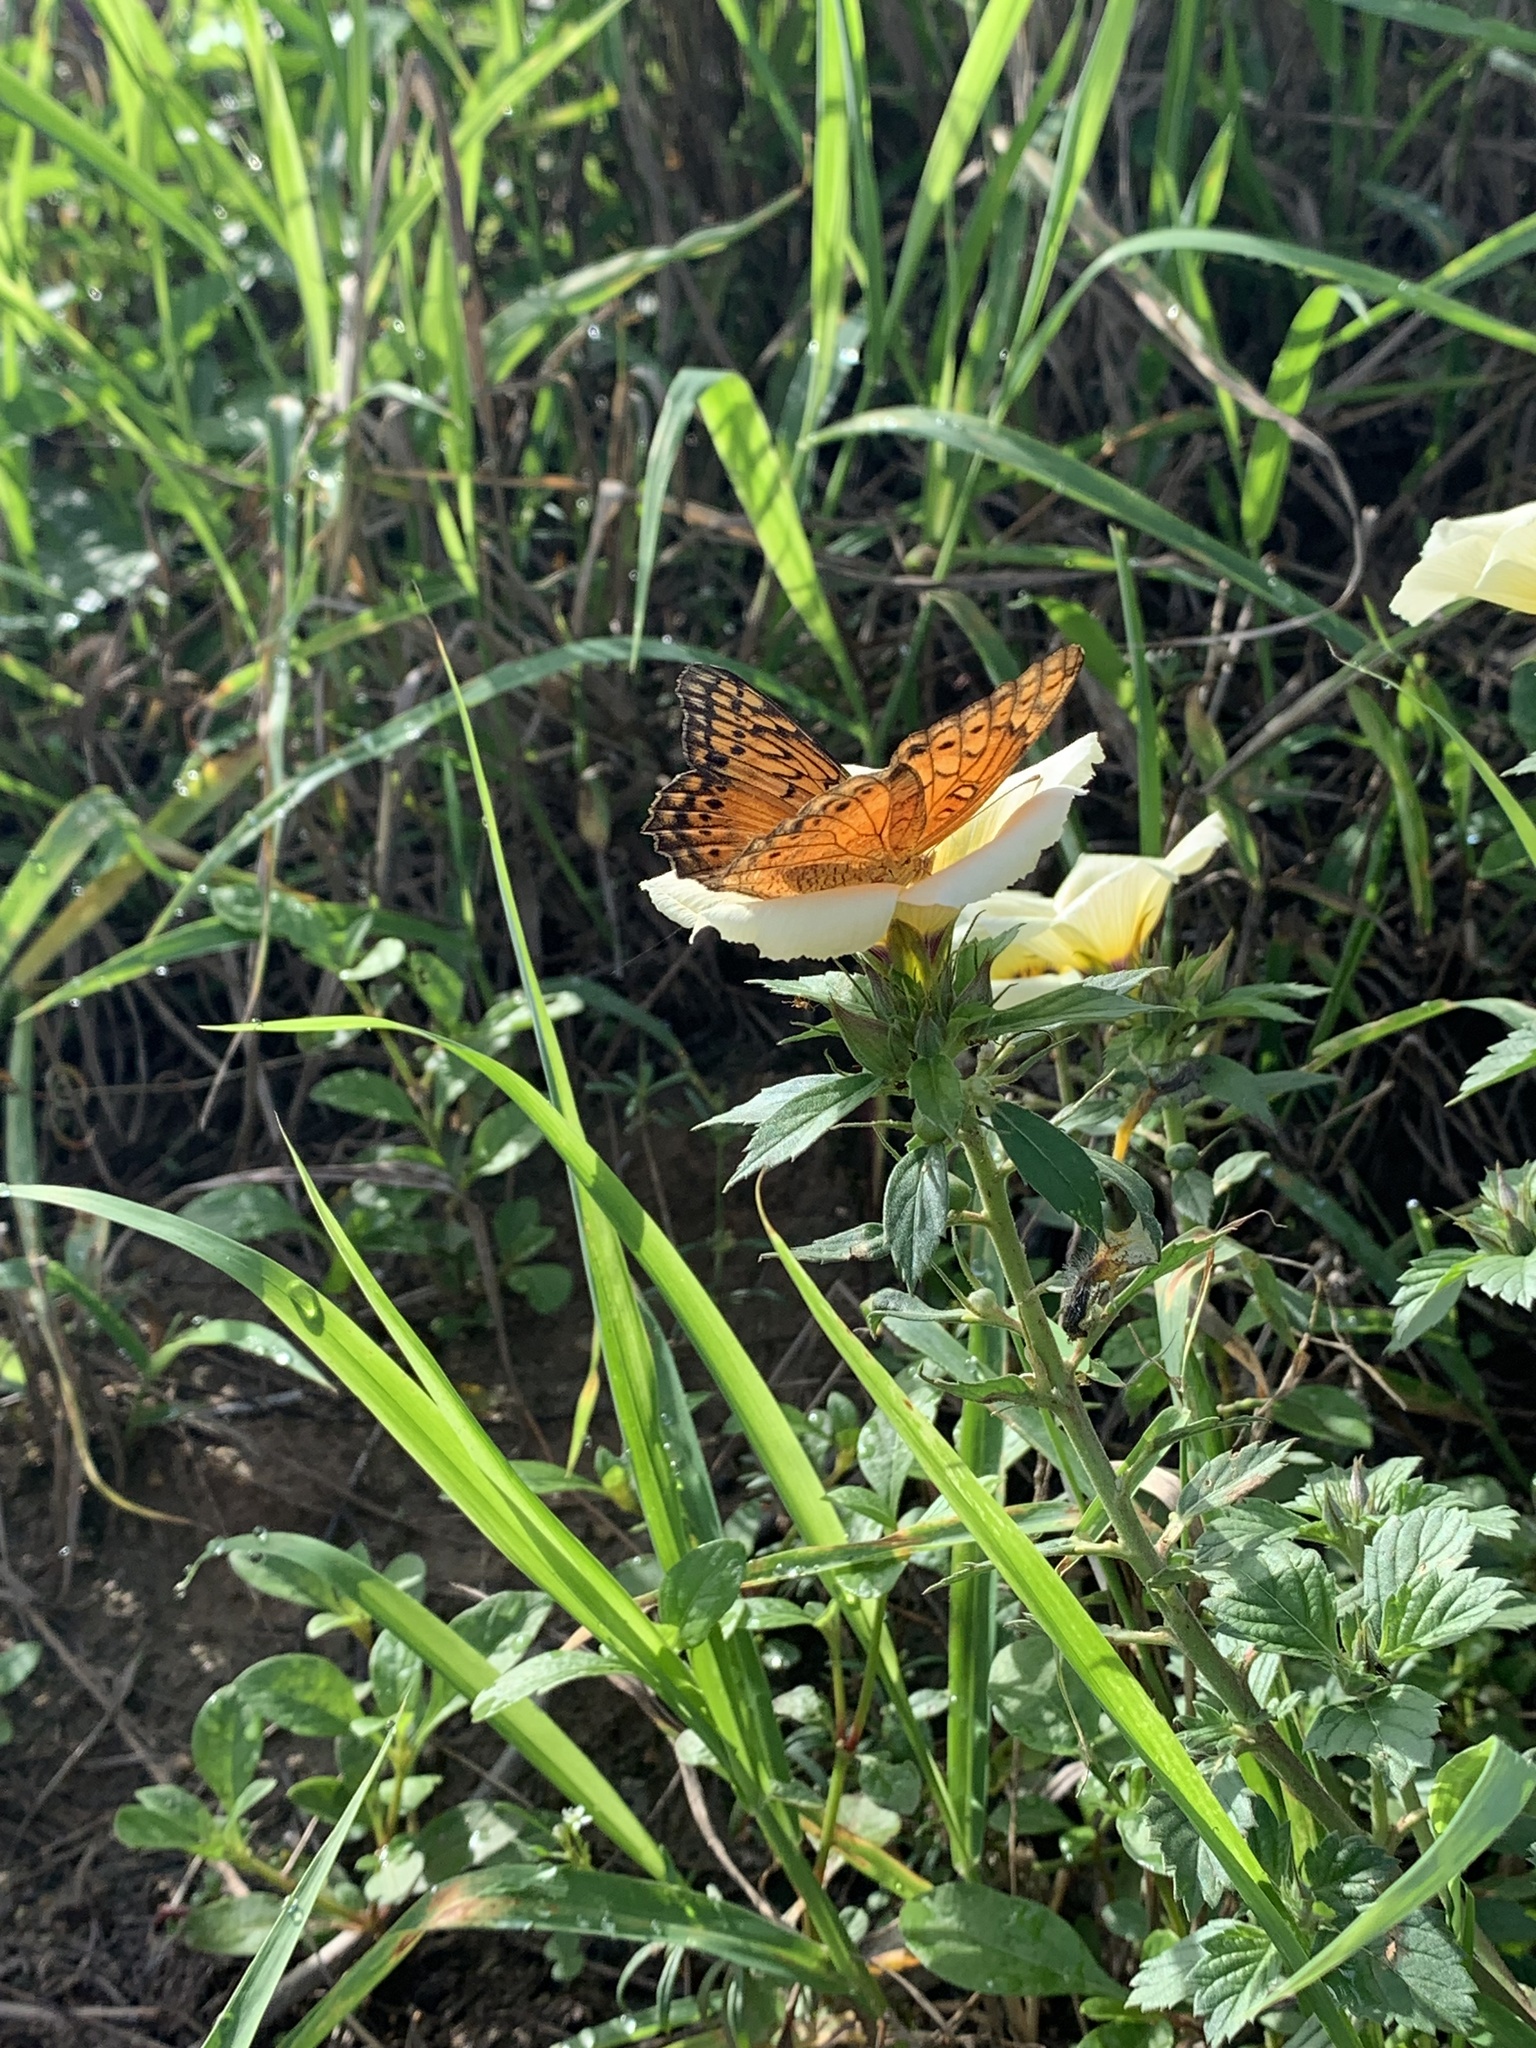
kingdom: Animalia
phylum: Arthropoda
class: Insecta
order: Lepidoptera
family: Nymphalidae
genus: Euptoieta
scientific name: Euptoieta hegesia
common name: Mexican fritillary
